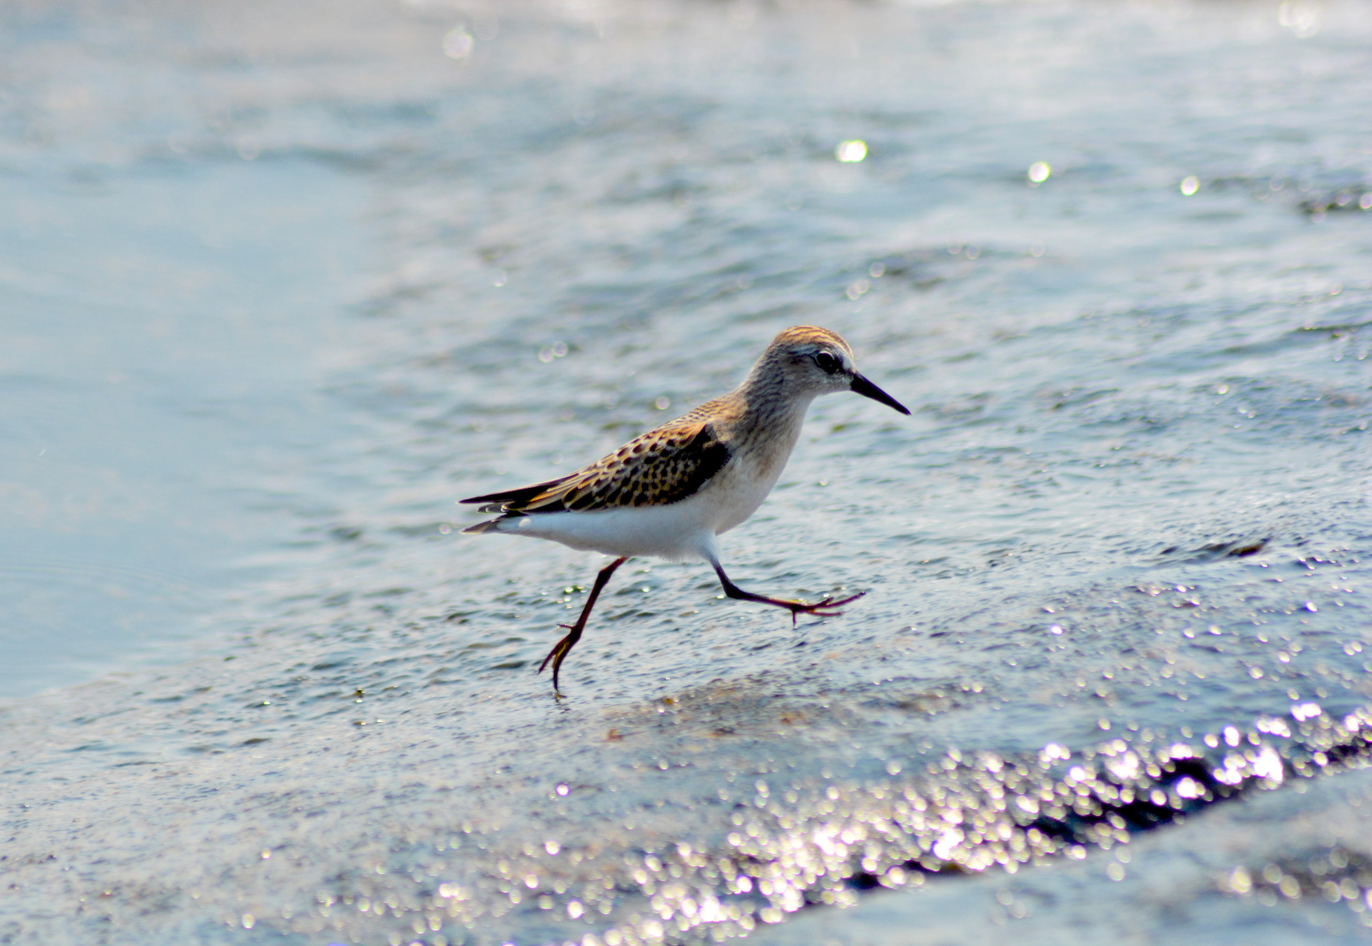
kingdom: Animalia
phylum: Chordata
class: Aves
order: Charadriiformes
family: Scolopacidae
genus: Calidris
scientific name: Calidris minutilla
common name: Least sandpiper
